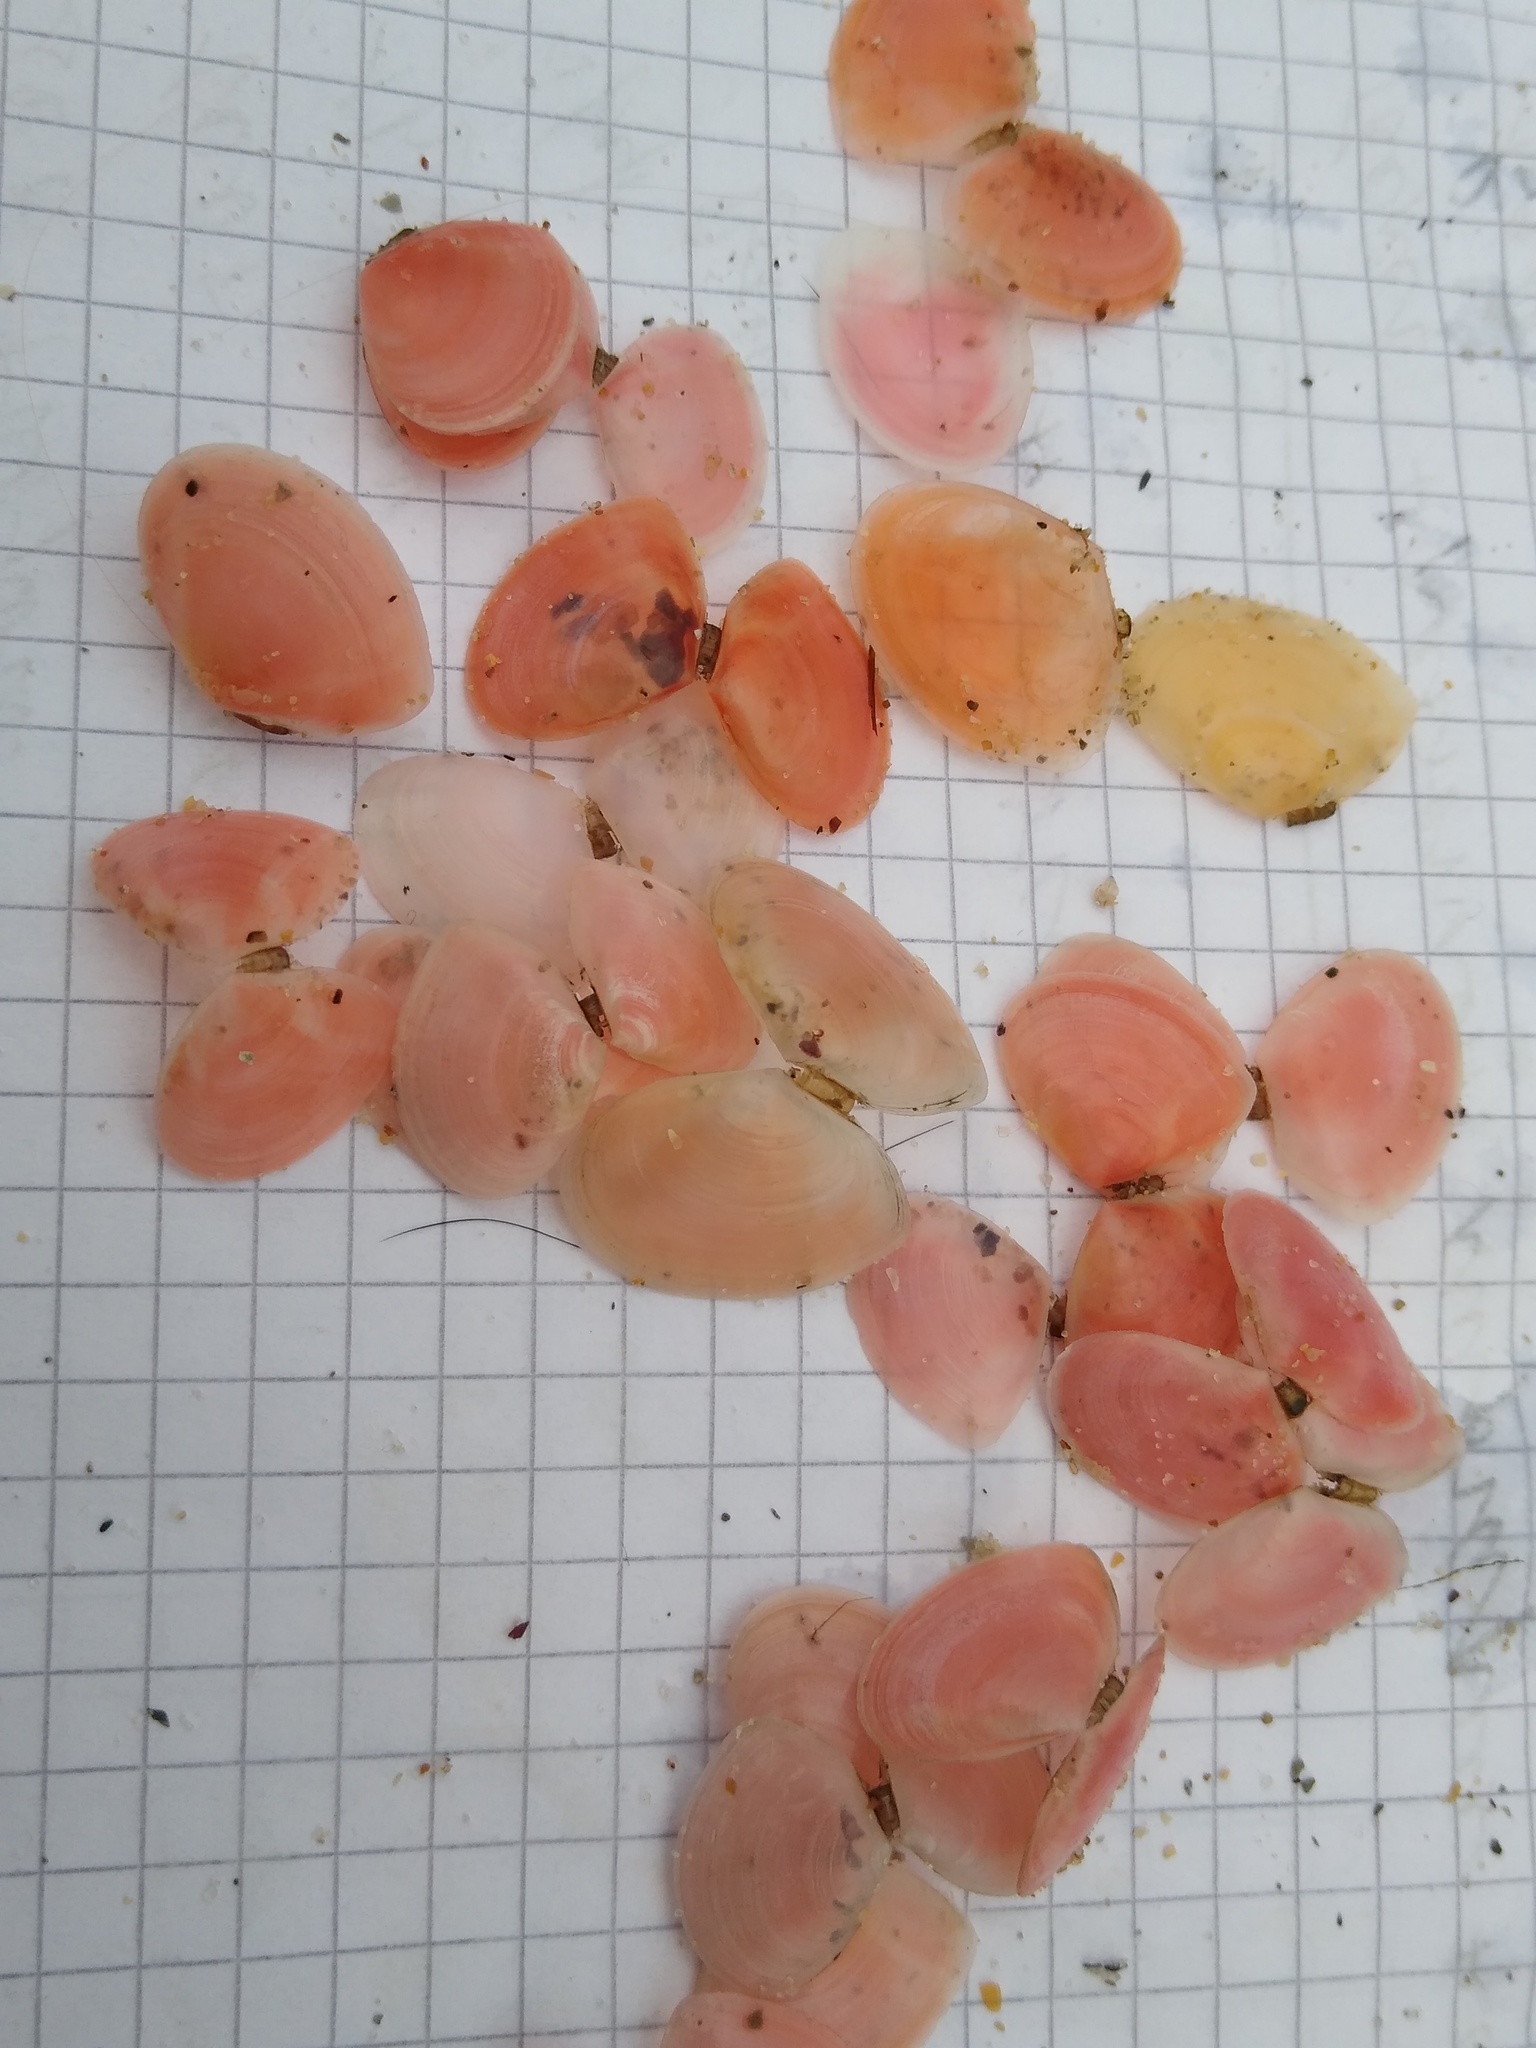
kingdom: Animalia
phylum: Mollusca
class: Bivalvia
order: Cardiida
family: Tellinidae
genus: Macomangulus
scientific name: Macomangulus tenuis
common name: Thin tellin
